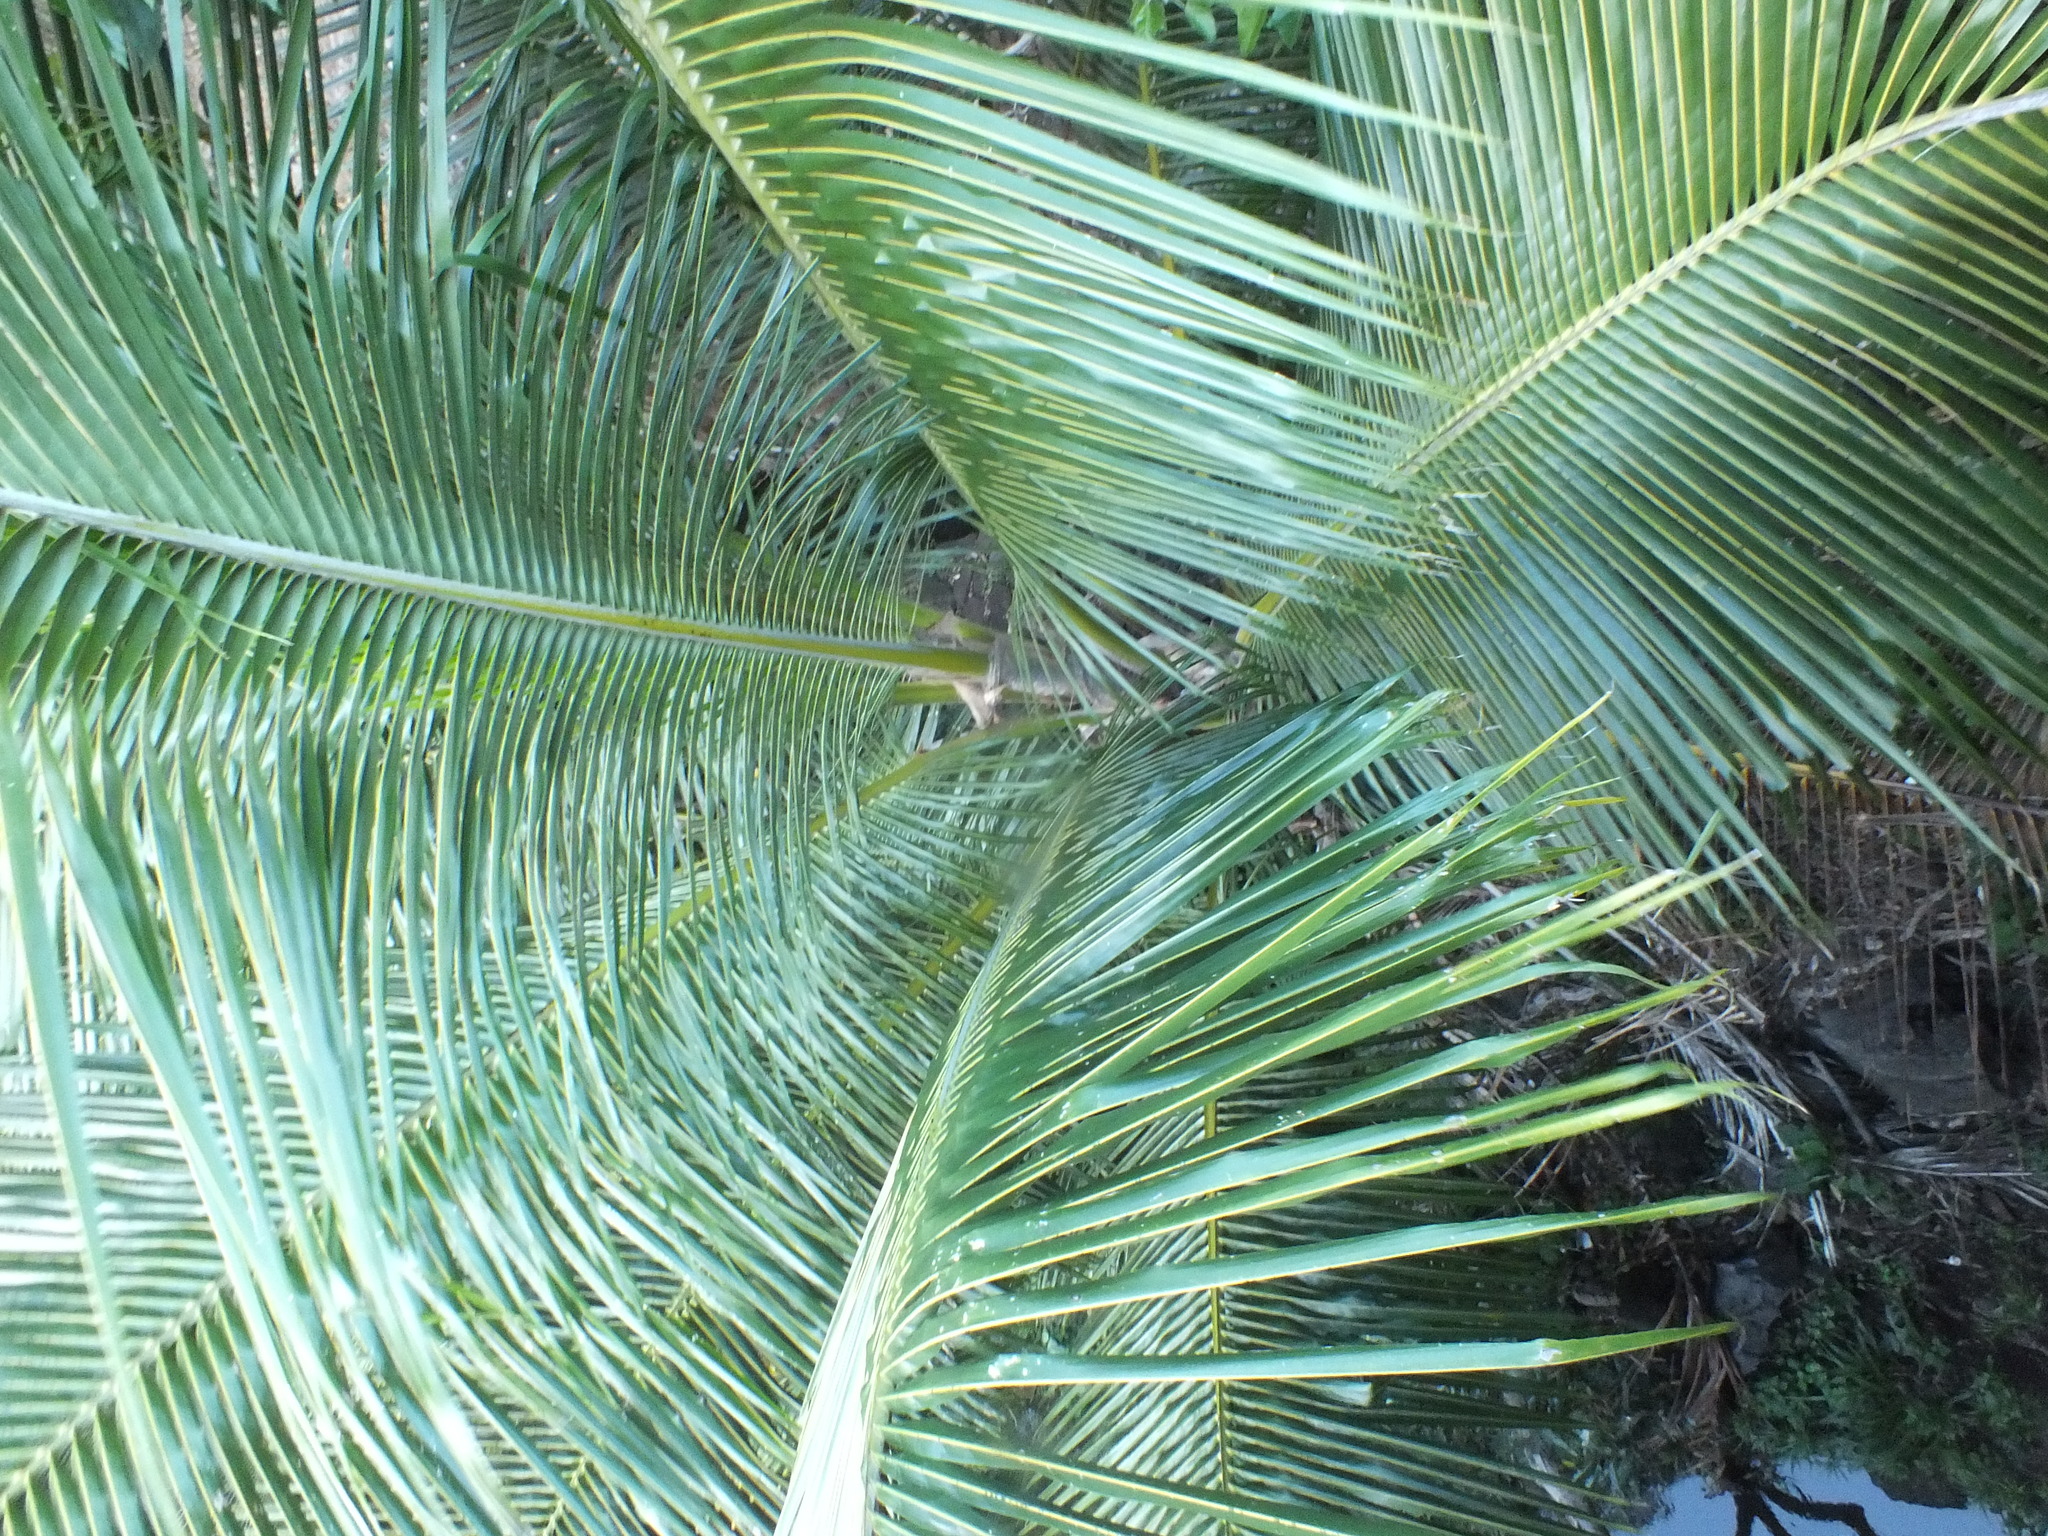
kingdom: Plantae
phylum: Tracheophyta
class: Liliopsida
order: Arecales
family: Arecaceae
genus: Cocos
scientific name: Cocos nucifera
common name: Coconut palm
